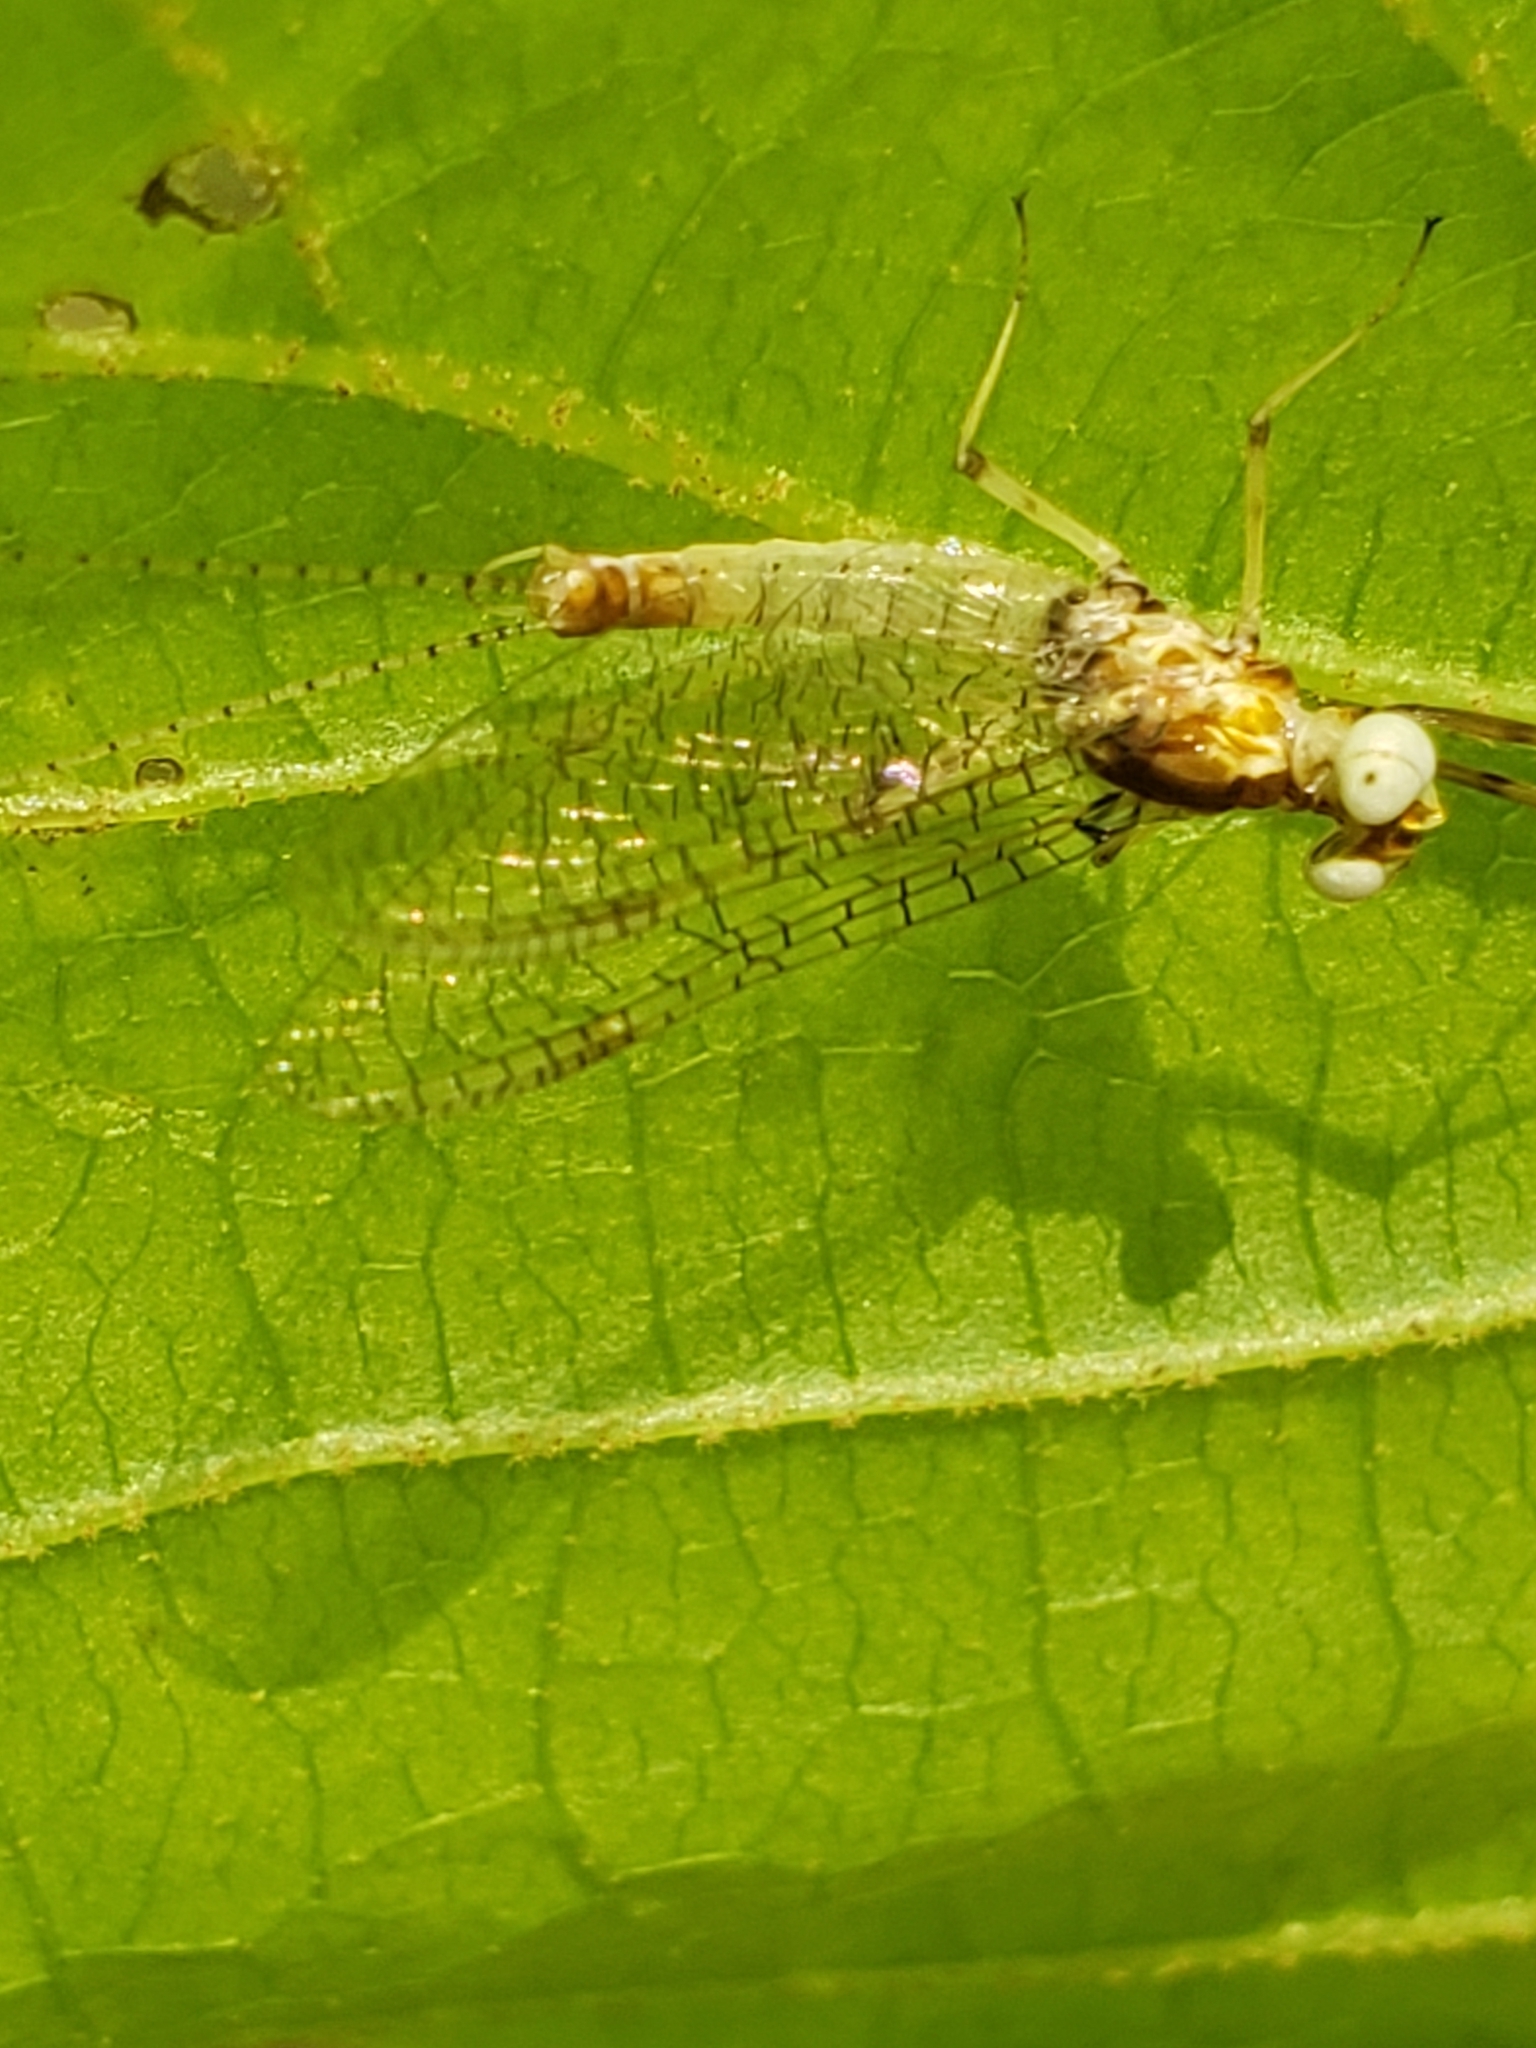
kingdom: Animalia
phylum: Arthropoda
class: Insecta
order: Ephemeroptera
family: Heptageniidae
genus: Maccaffertium
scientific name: Maccaffertium mediopunctatum
